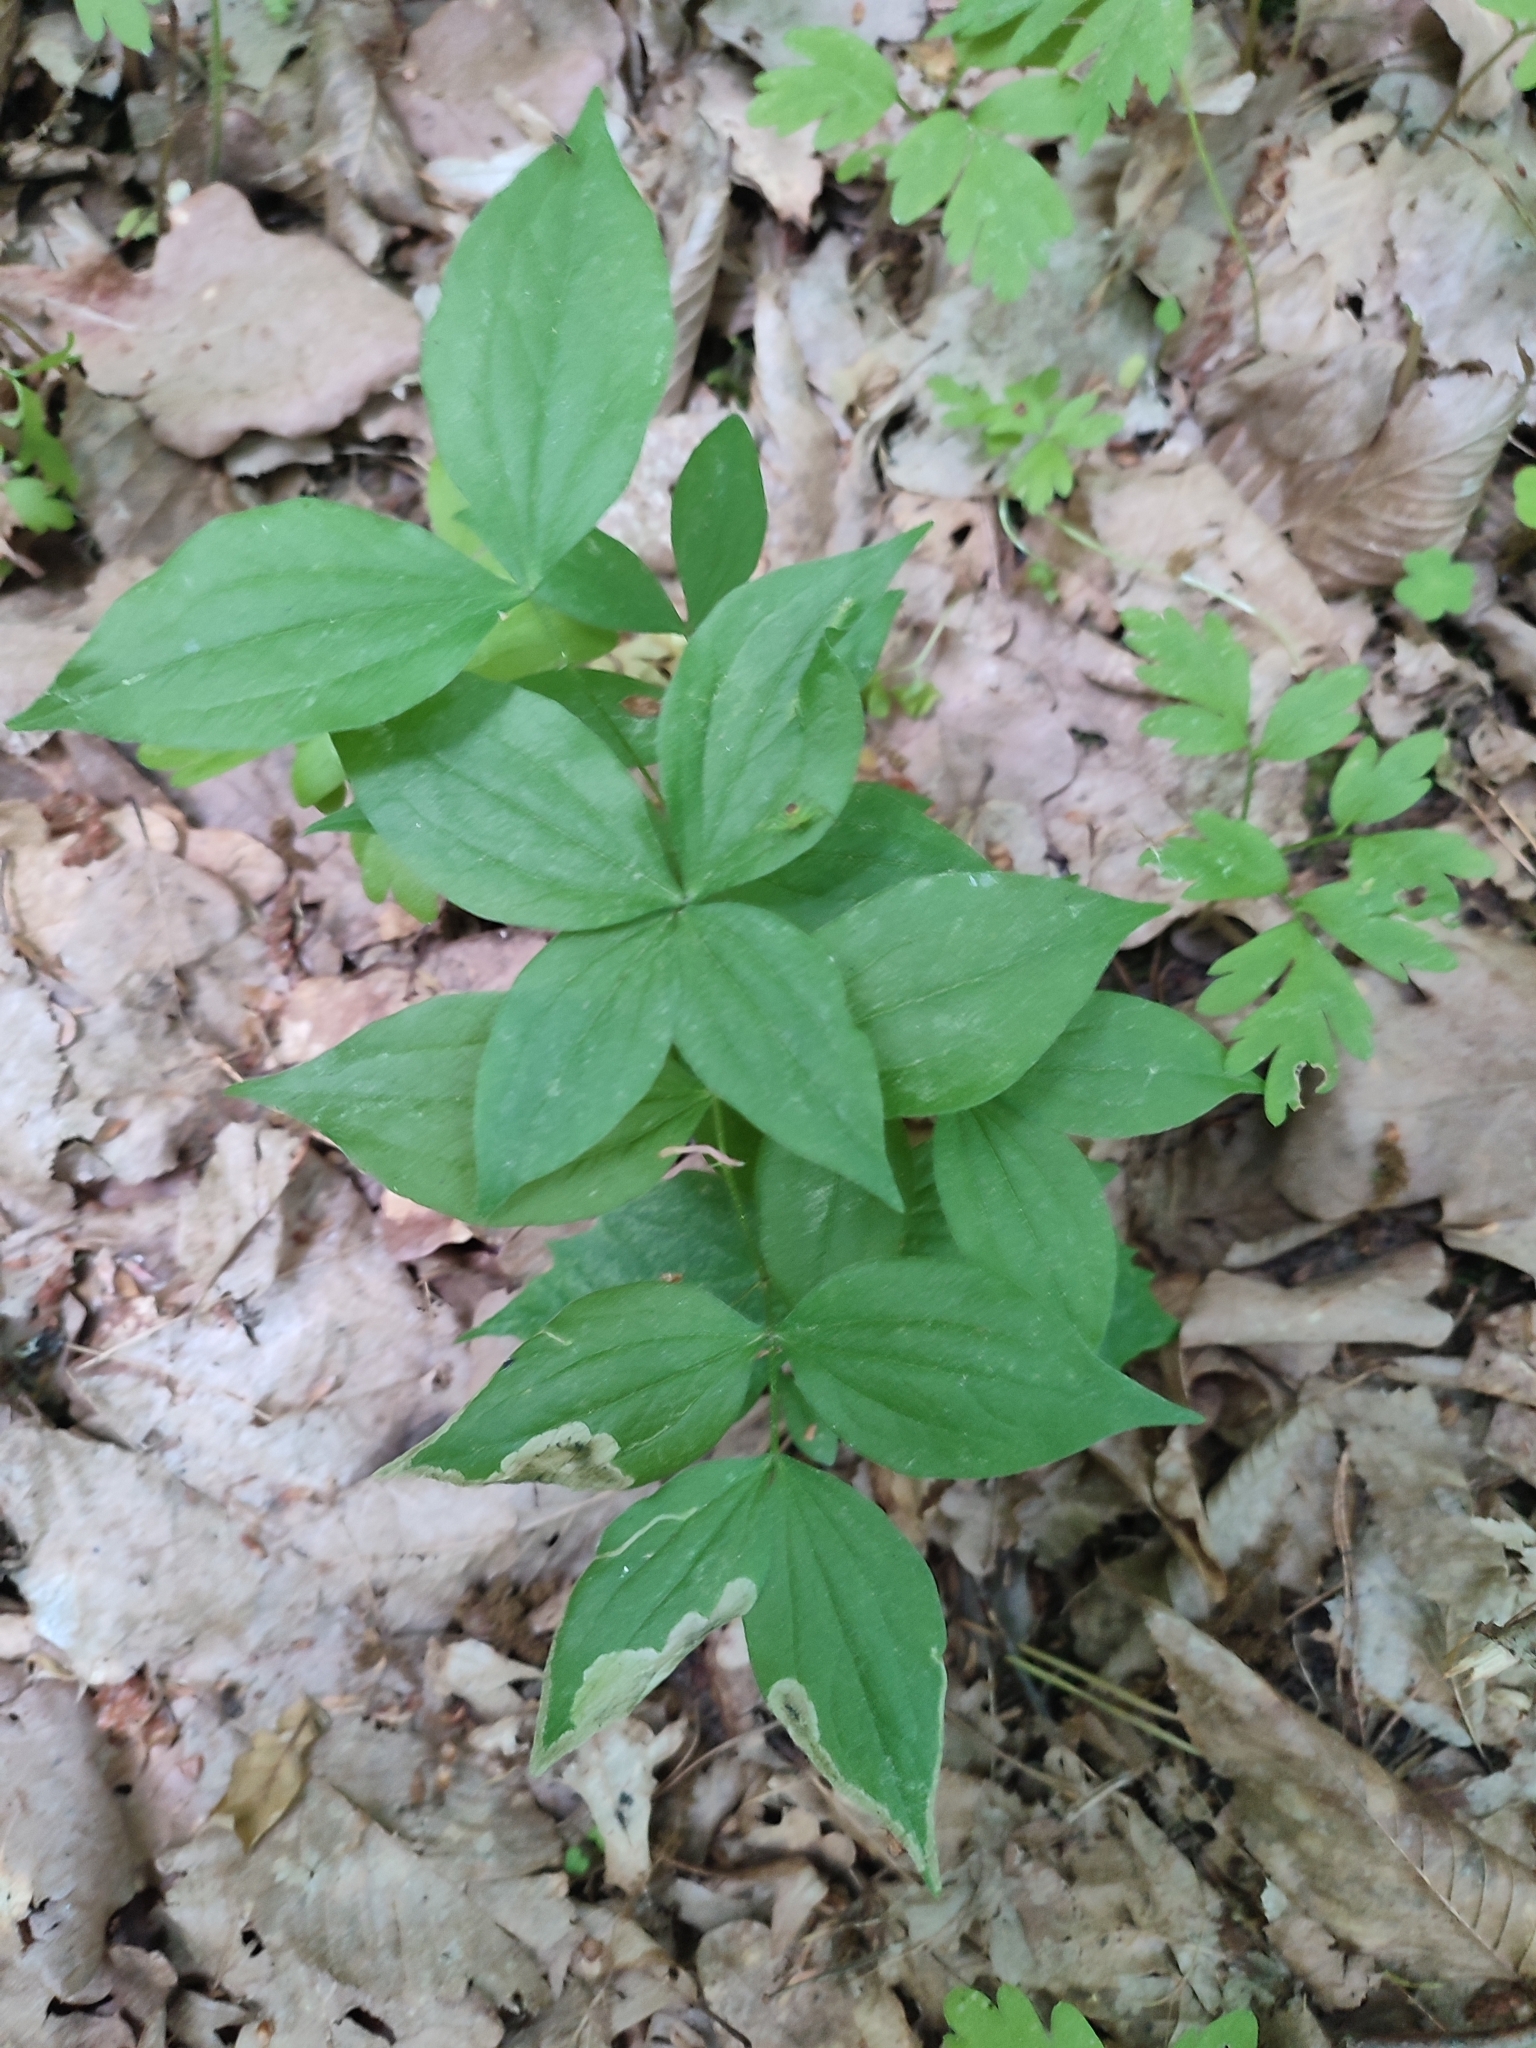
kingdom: Plantae
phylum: Tracheophyta
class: Magnoliopsida
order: Fabales
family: Fabaceae
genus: Lathyrus
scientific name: Lathyrus vernus
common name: Spring pea
